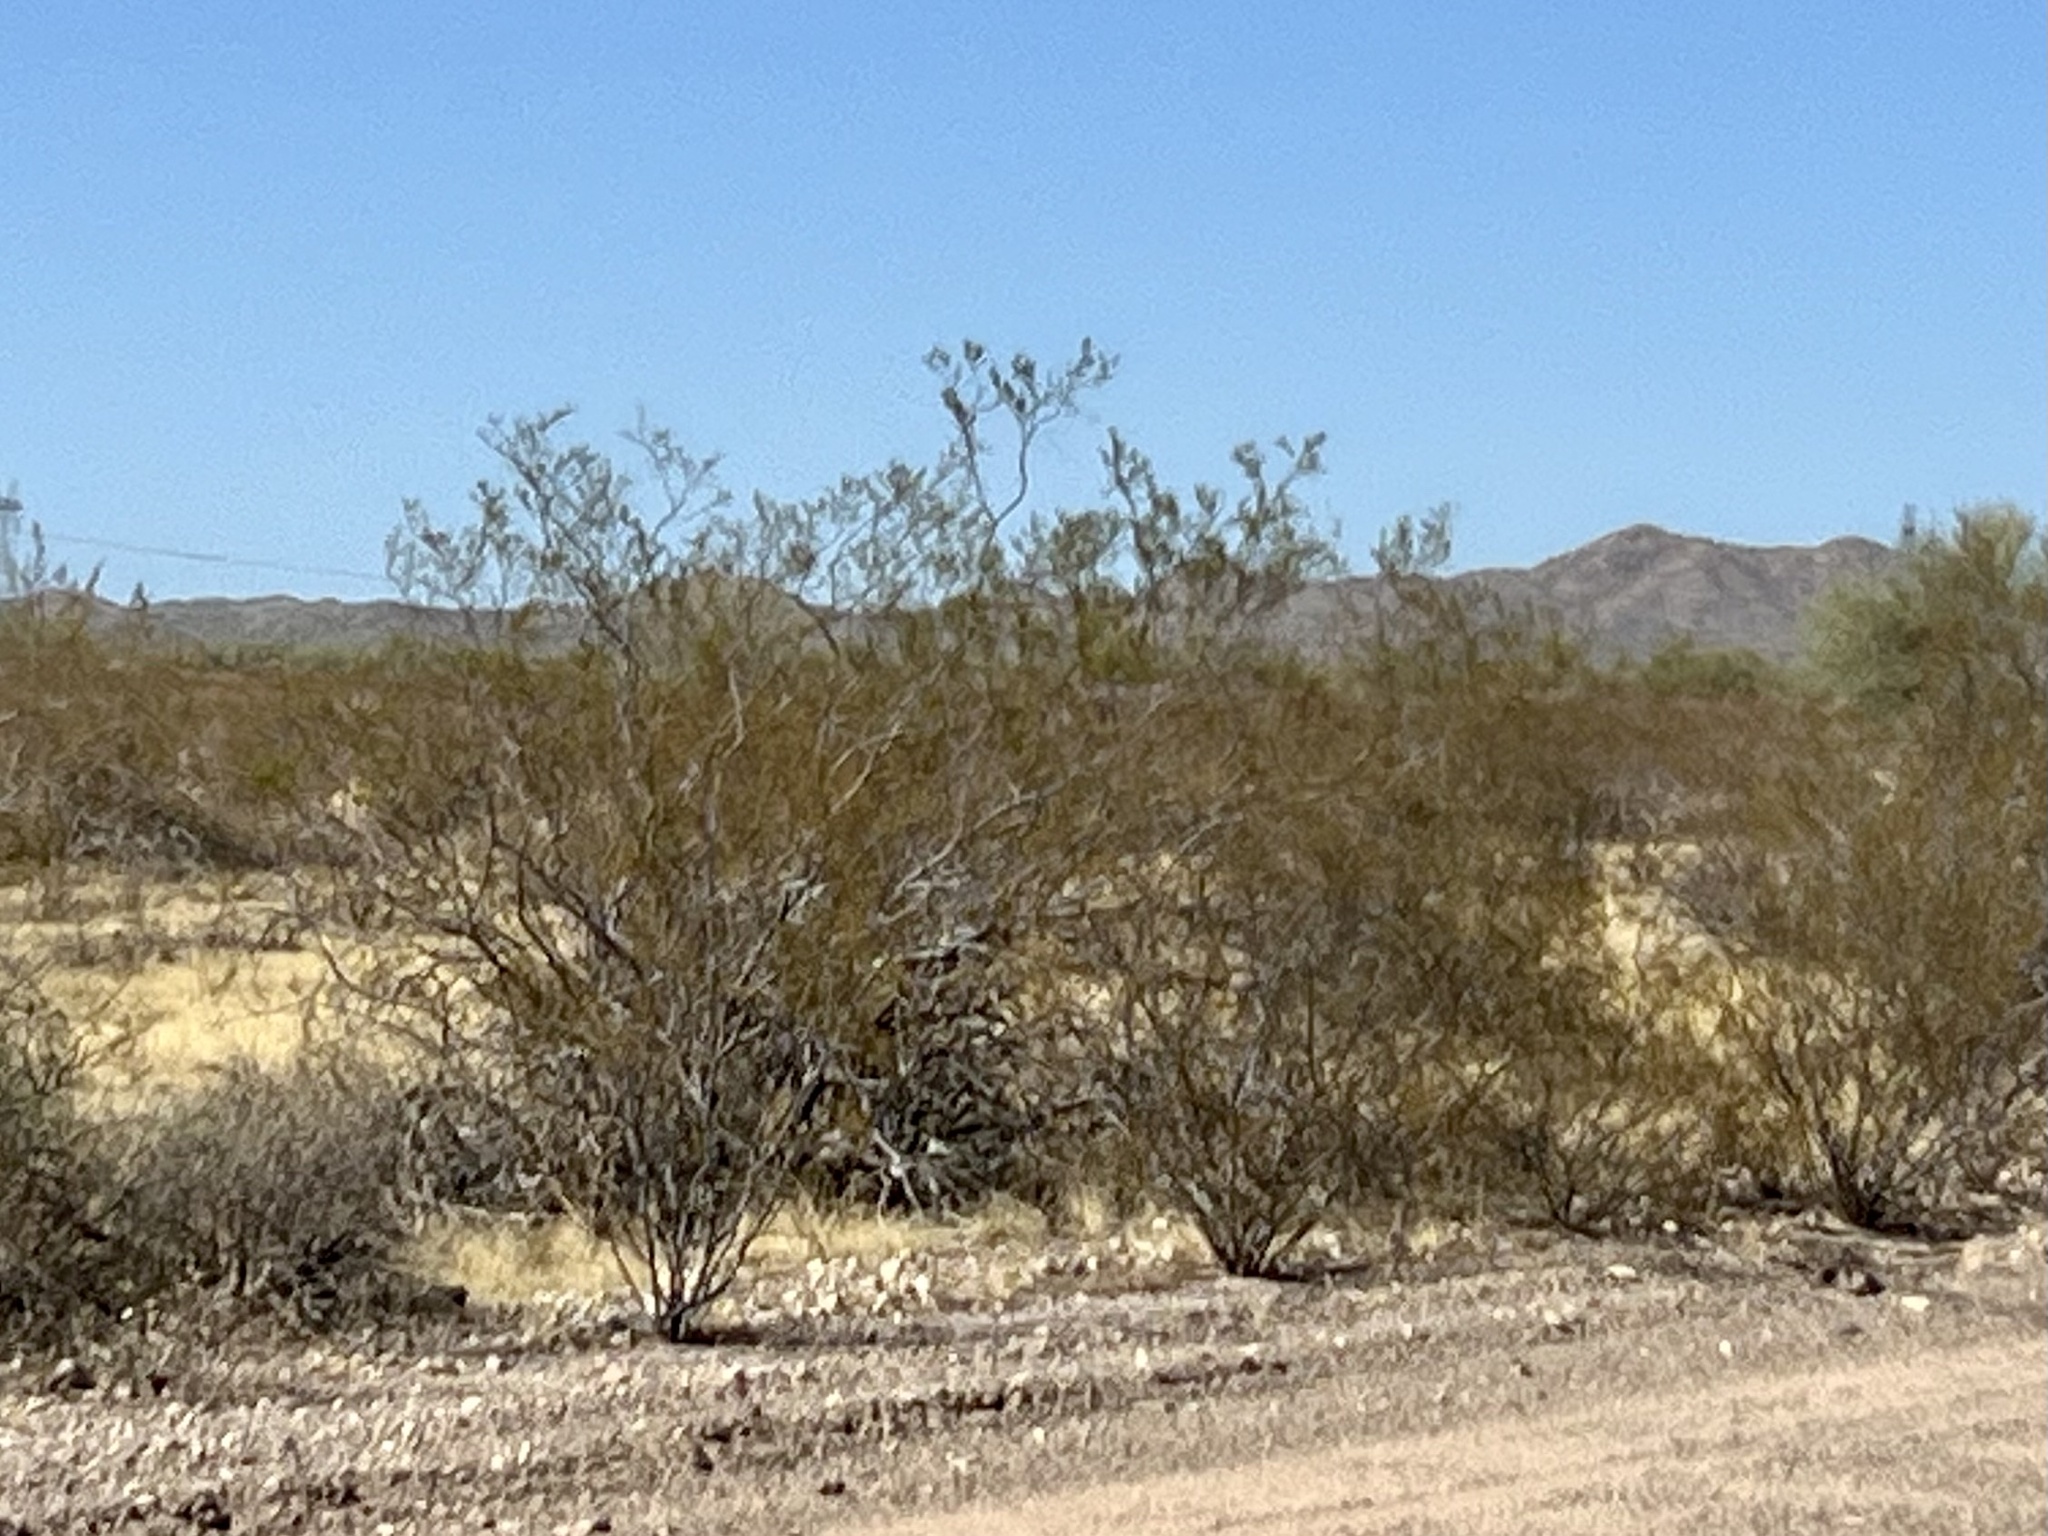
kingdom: Plantae
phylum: Tracheophyta
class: Magnoliopsida
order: Zygophyllales
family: Zygophyllaceae
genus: Larrea
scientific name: Larrea tridentata
